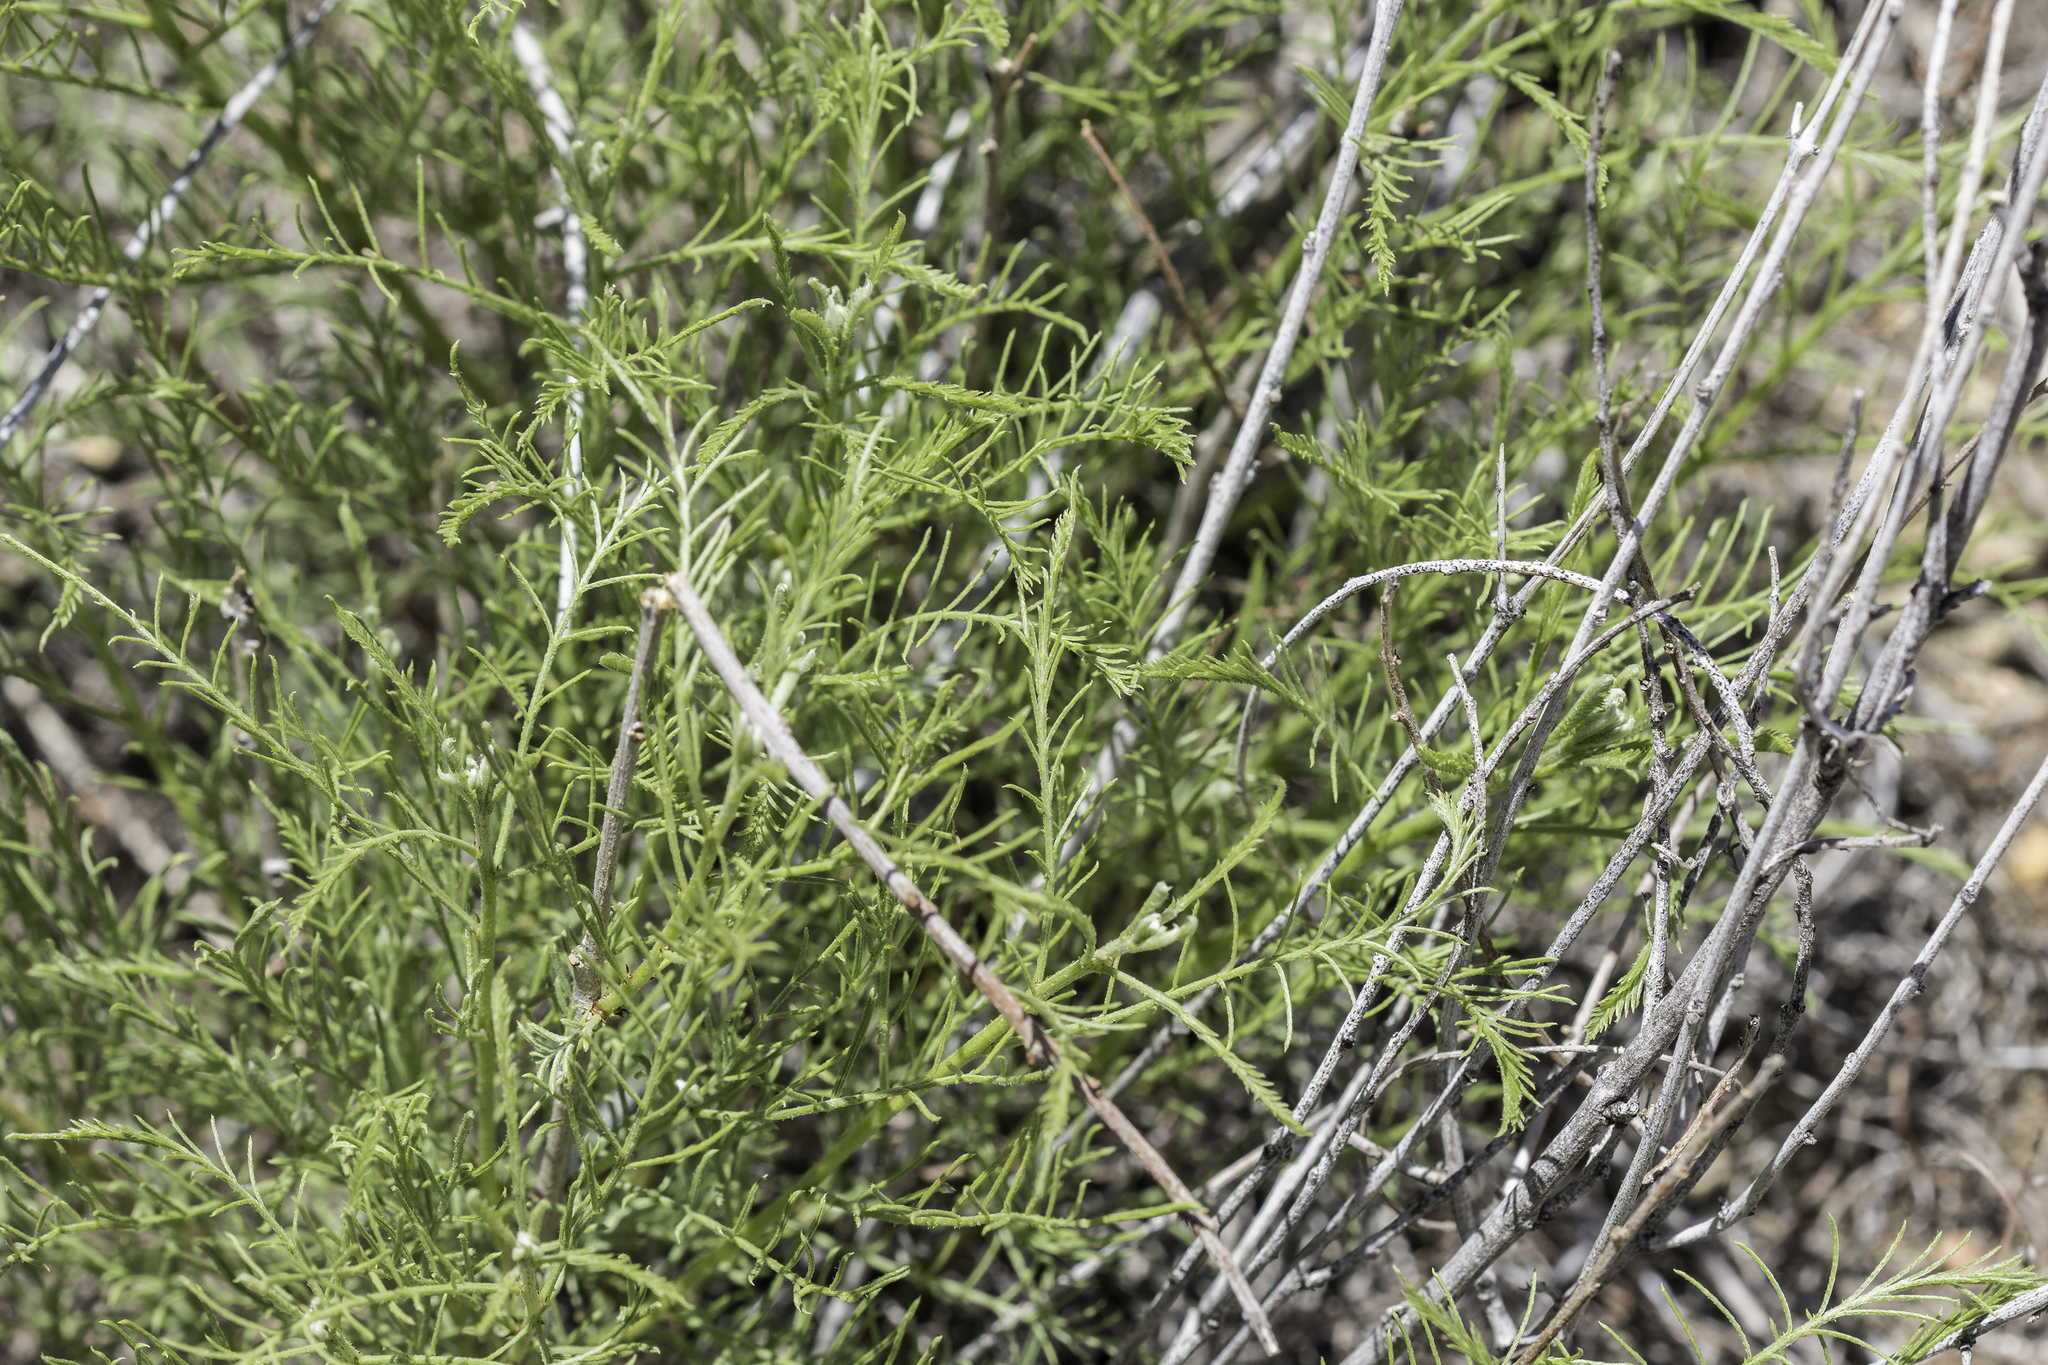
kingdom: Plantae
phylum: Tracheophyta
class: Magnoliopsida
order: Fabales
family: Fabaceae
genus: Parryella
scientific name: Parryella filifolia
